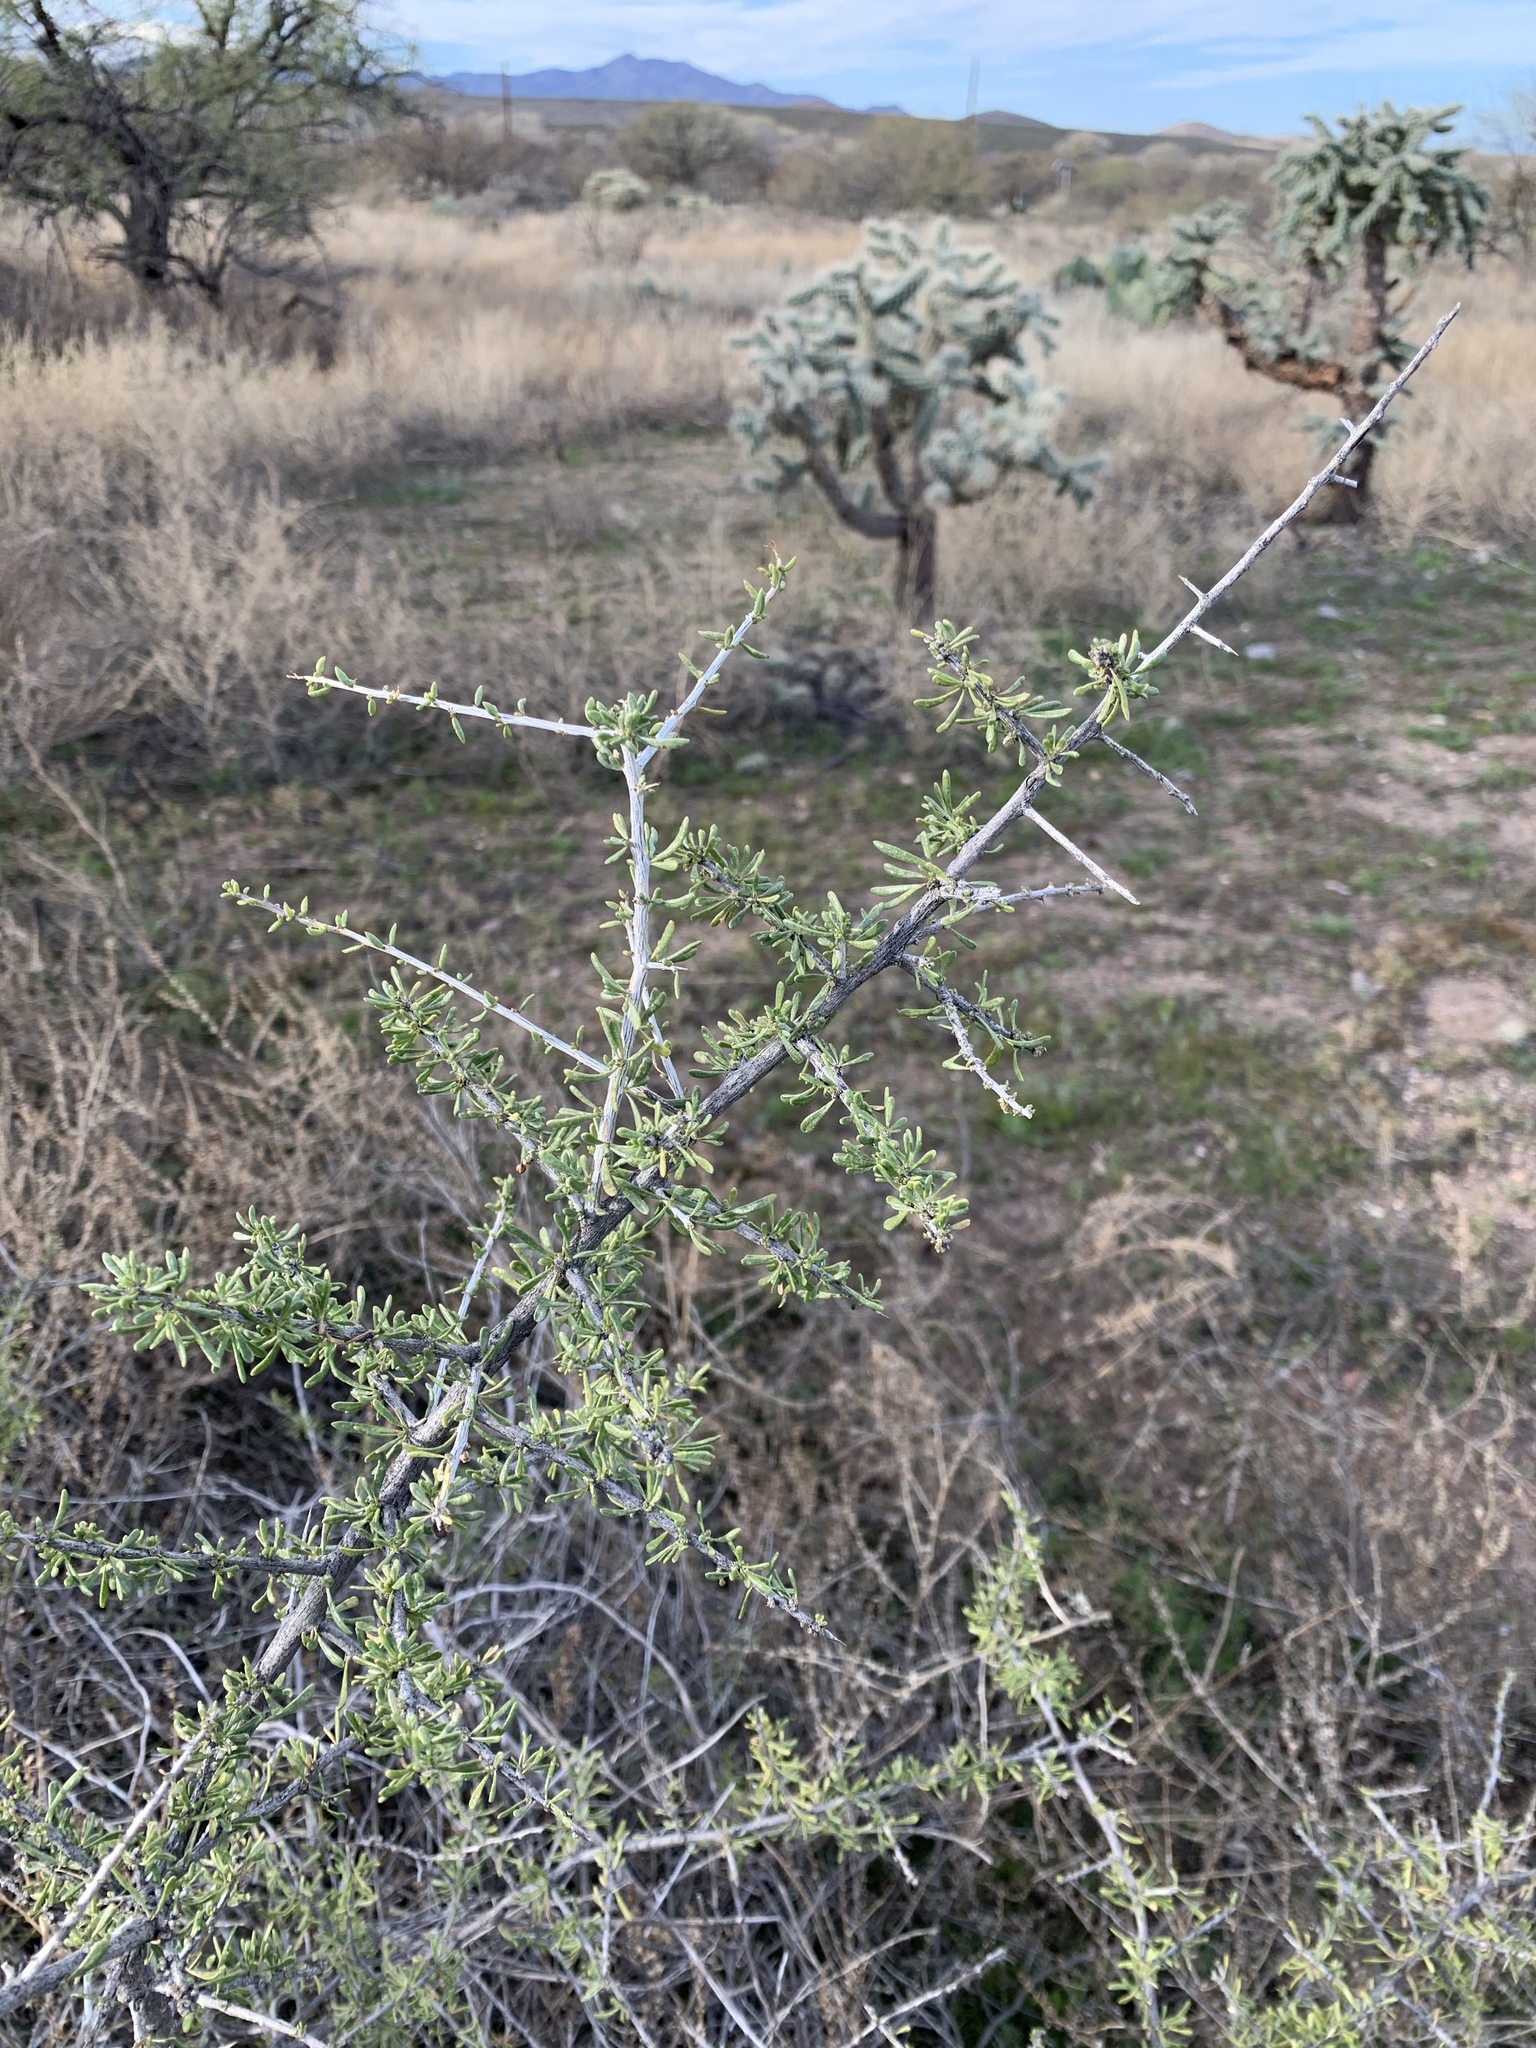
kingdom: Plantae
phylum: Tracheophyta
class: Magnoliopsida
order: Solanales
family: Solanaceae
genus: Lycium
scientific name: Lycium andersonii
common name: Water-jacket
